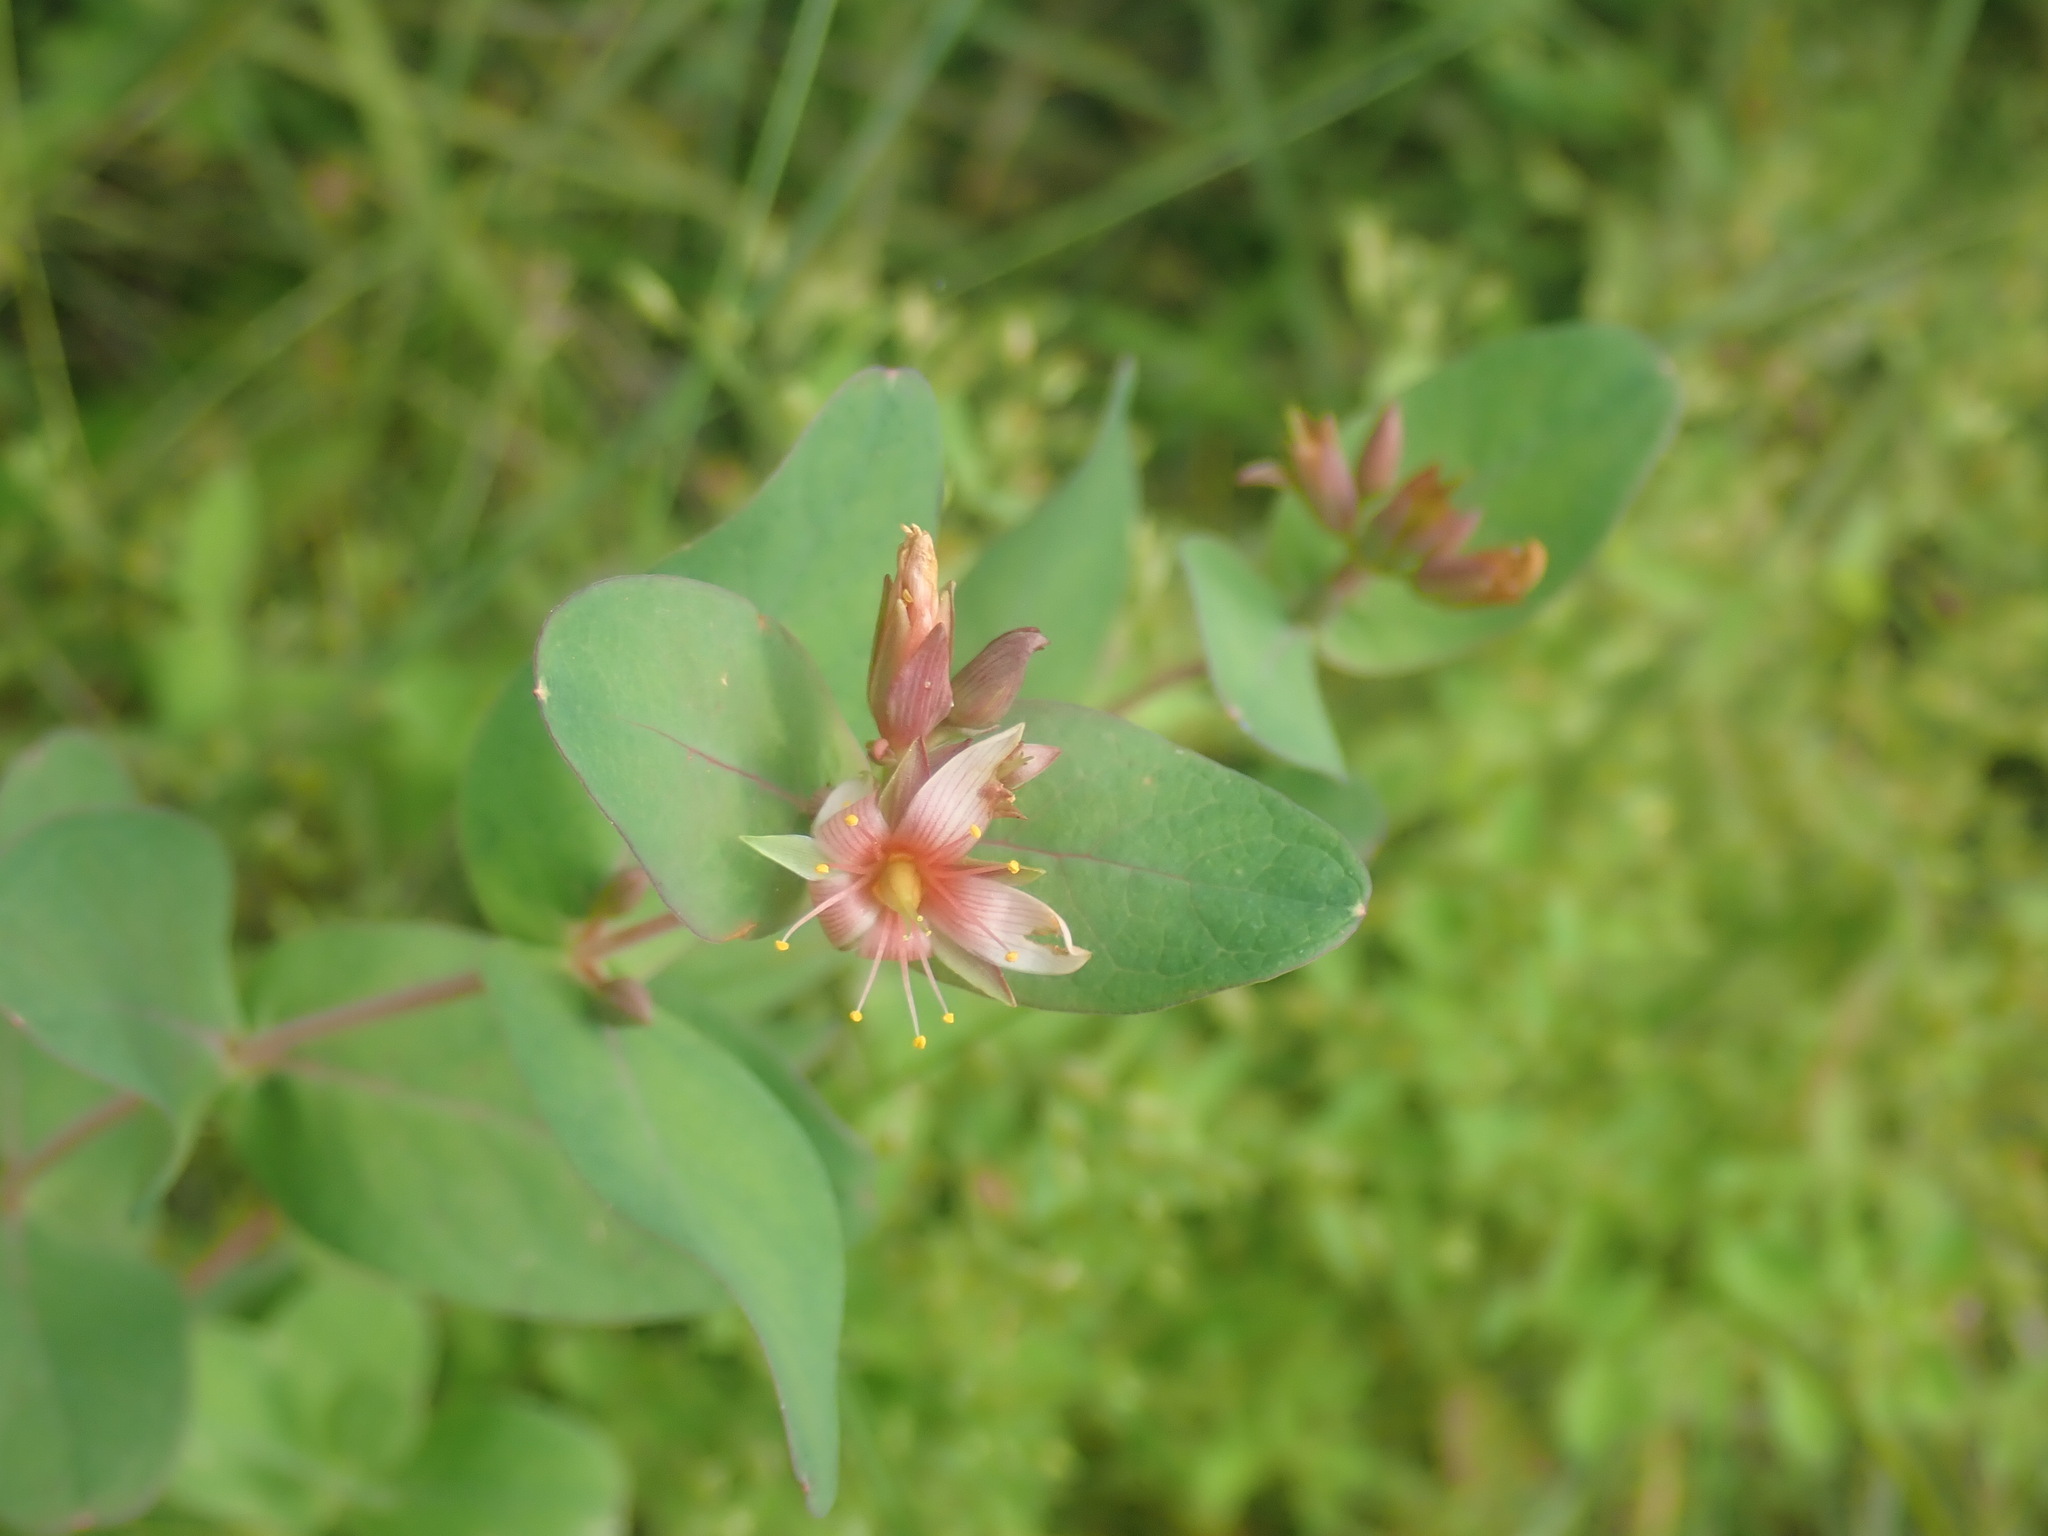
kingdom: Plantae
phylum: Tracheophyta
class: Magnoliopsida
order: Malpighiales
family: Hypericaceae
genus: Triadenum
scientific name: Triadenum virginicum
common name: Marsh st. john's-wort
